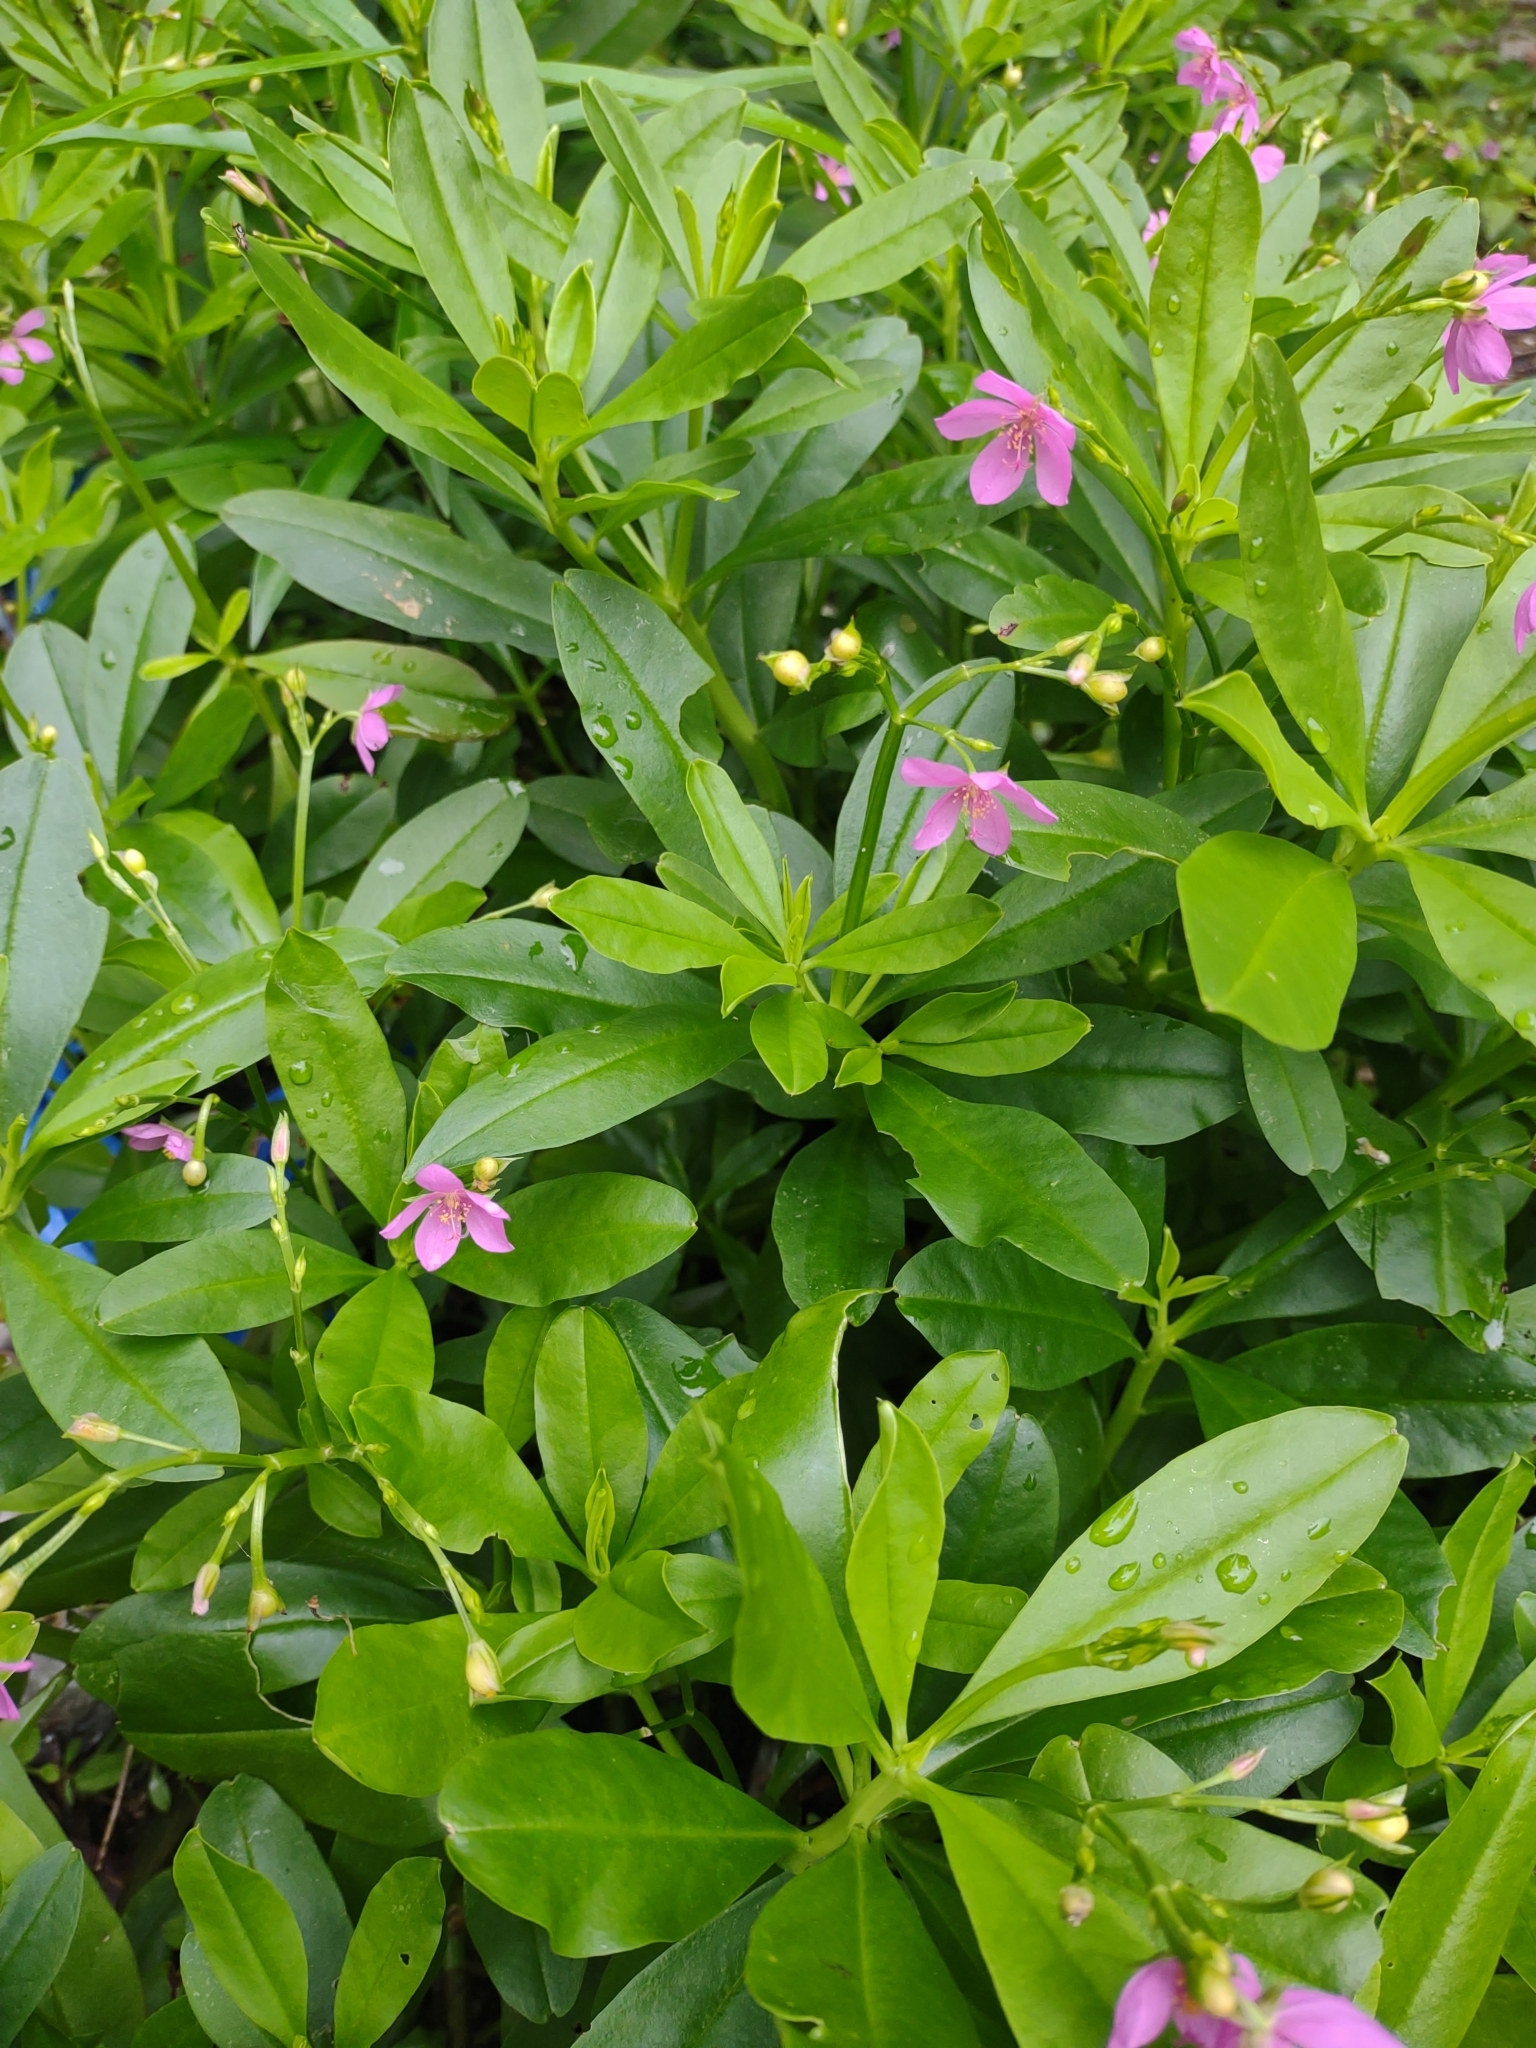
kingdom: Plantae
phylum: Tracheophyta
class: Magnoliopsida
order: Caryophyllales
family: Talinaceae
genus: Talinum
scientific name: Talinum fruticosum
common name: Verdolaga-francesa
